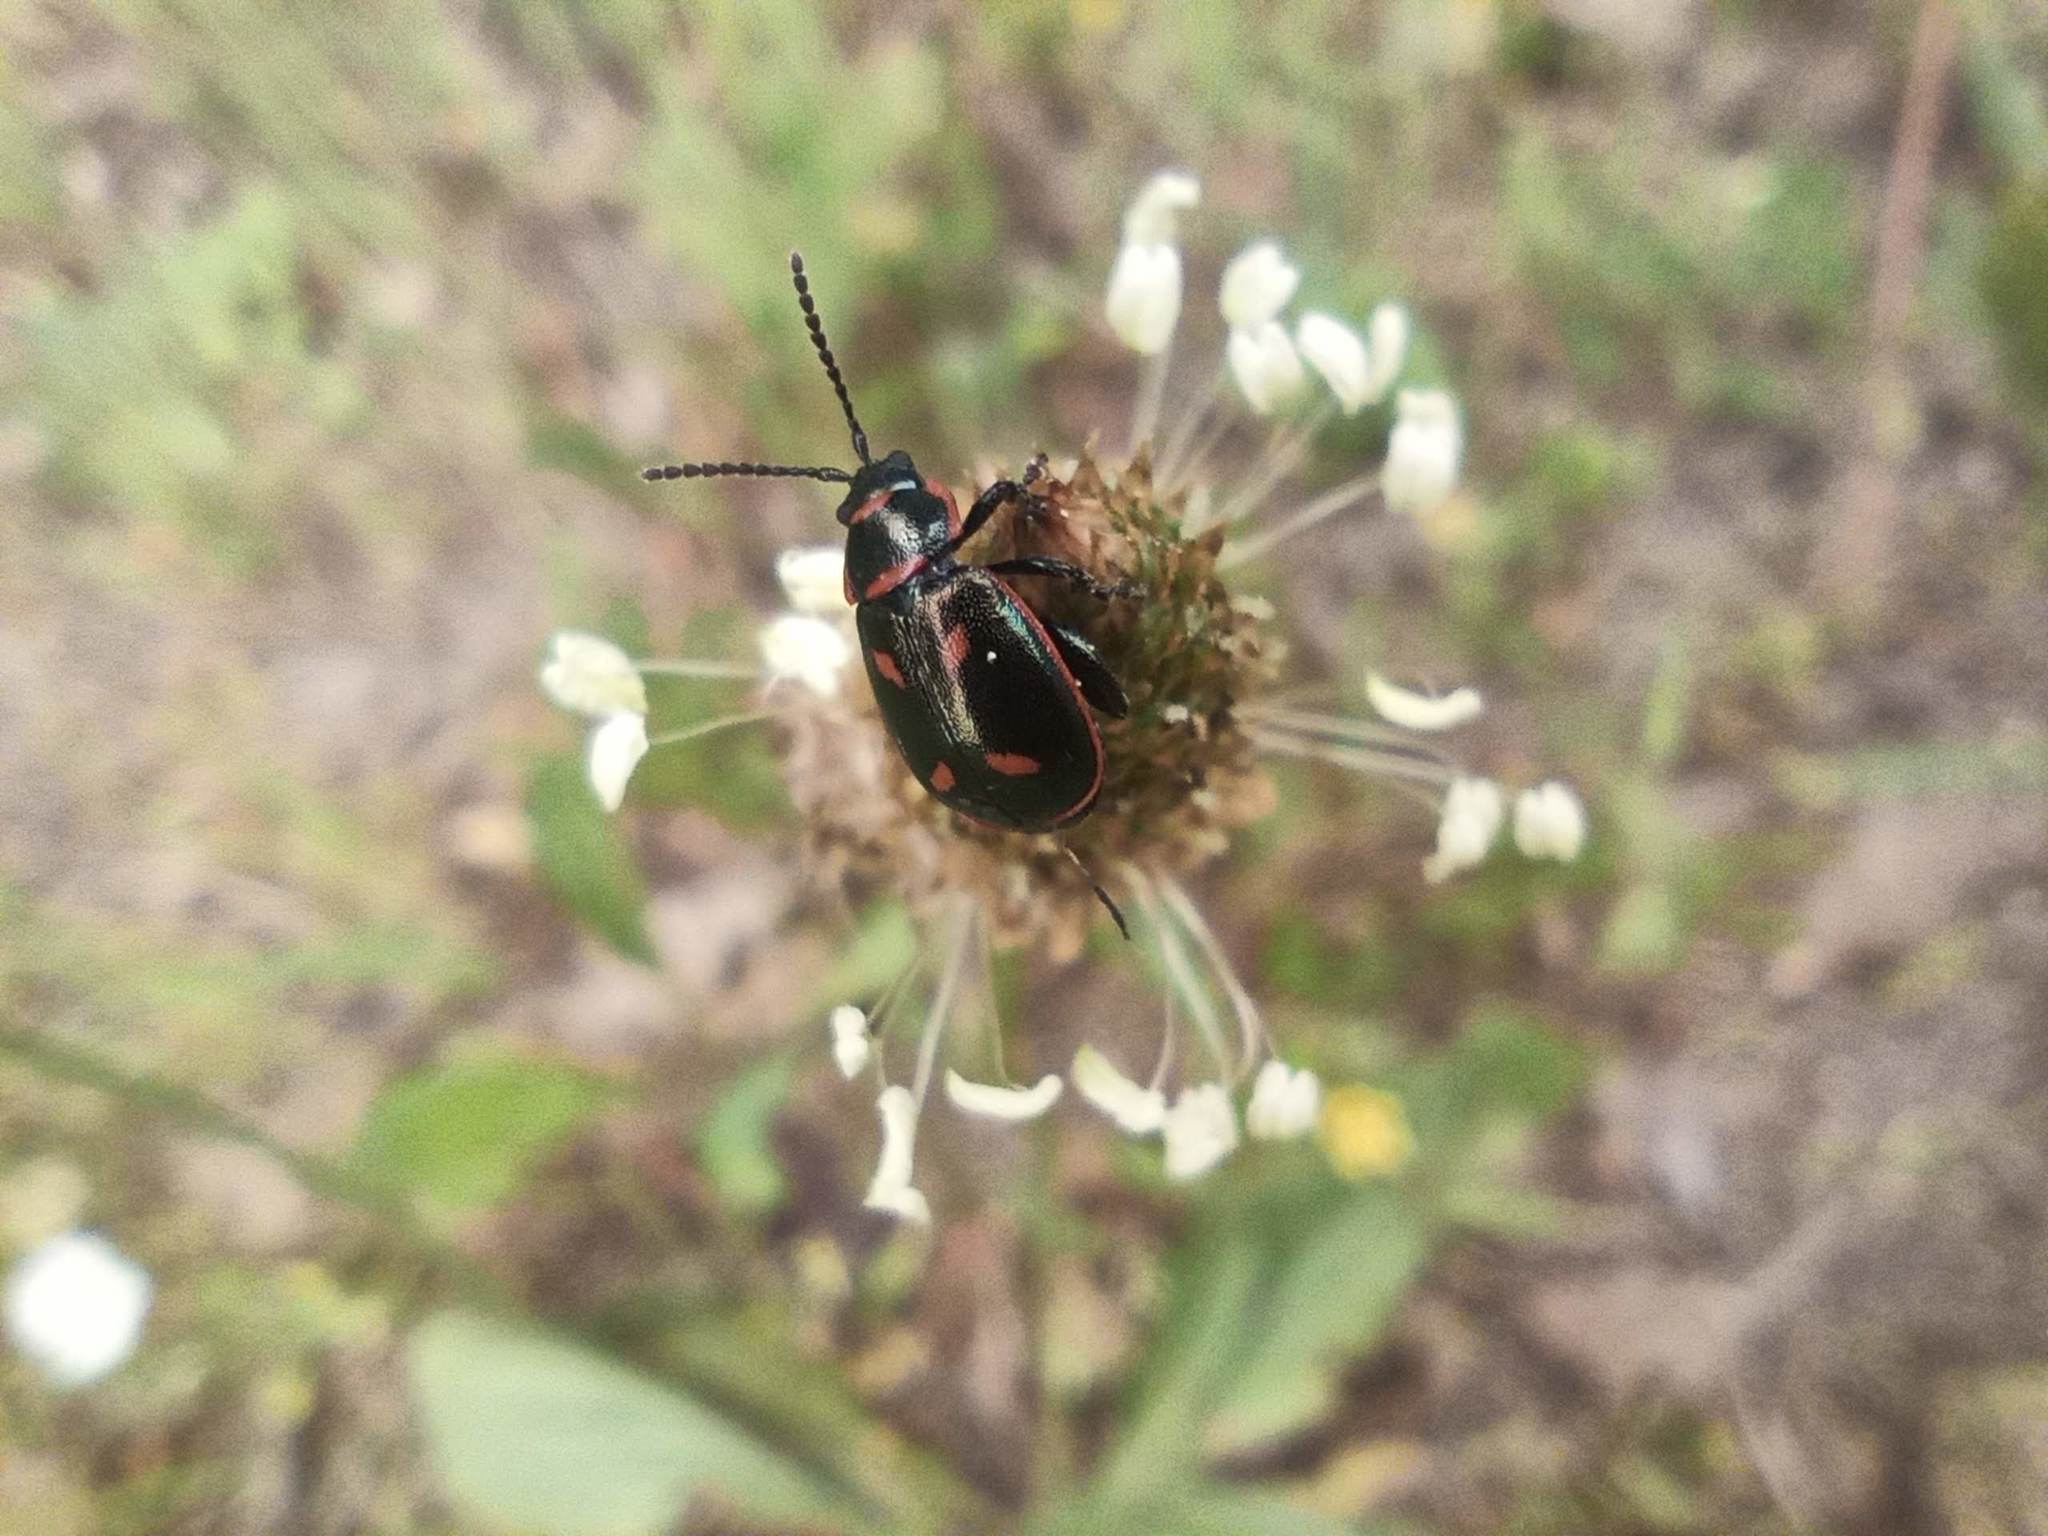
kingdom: Animalia
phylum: Arthropoda
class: Insecta
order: Coleoptera
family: Chrysomelidae
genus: Oedionychis
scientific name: Oedionychis cincta
